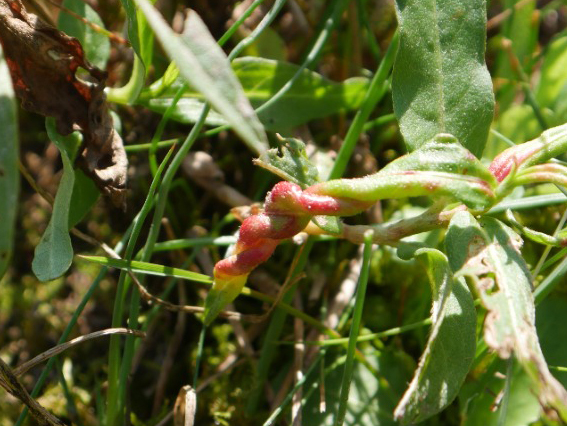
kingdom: Animalia
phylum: Arthropoda
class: Insecta
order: Diptera
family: Cecidomyiidae
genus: Wachtliella
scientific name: Wachtliella persicariae
